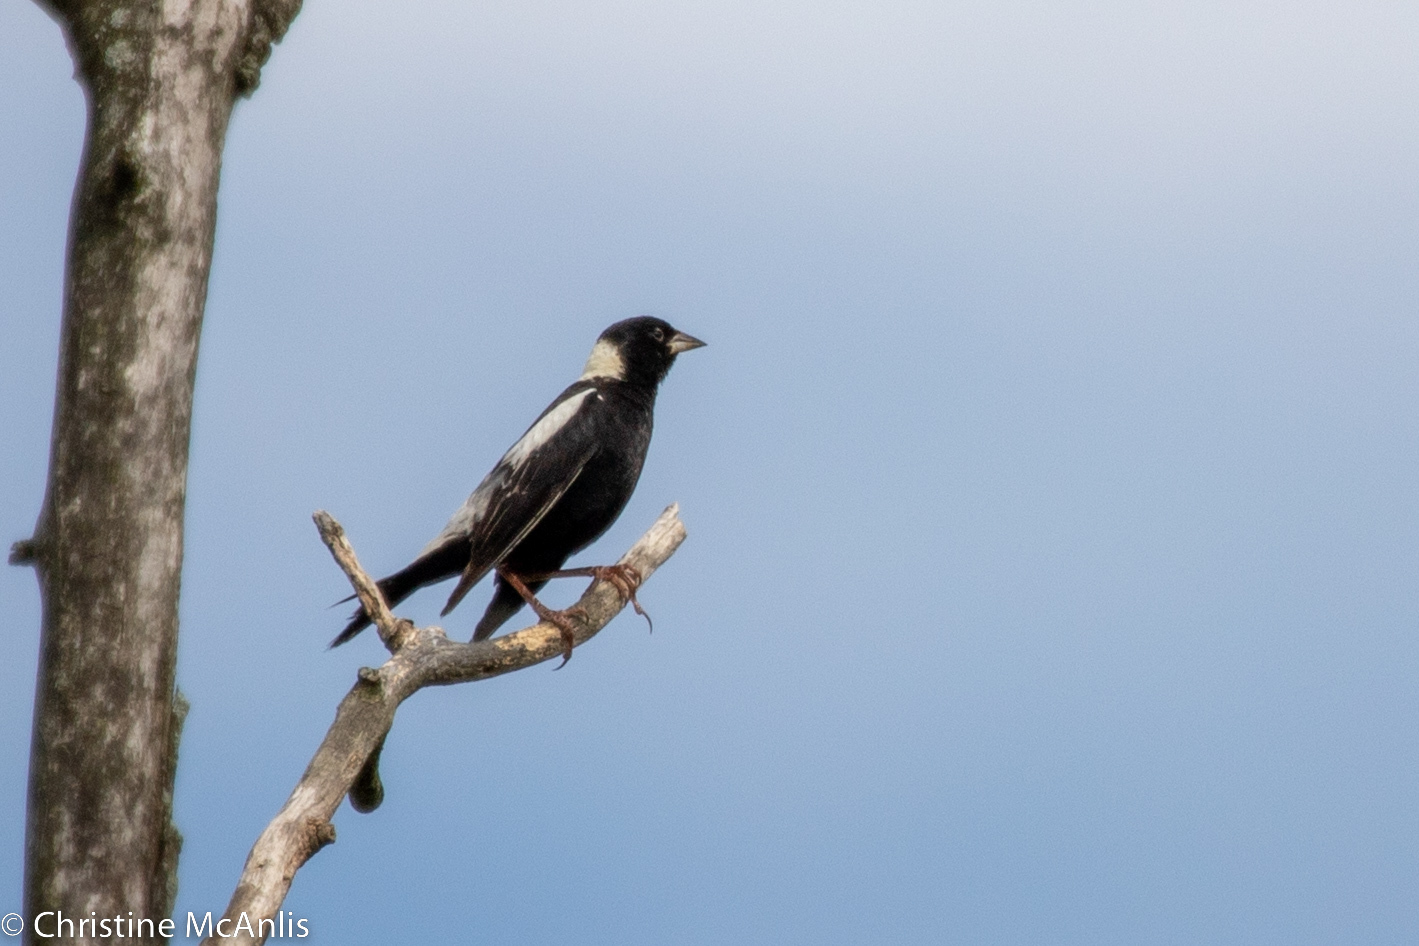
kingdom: Animalia
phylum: Chordata
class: Aves
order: Passeriformes
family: Icteridae
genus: Dolichonyx
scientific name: Dolichonyx oryzivorus
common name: Bobolink
